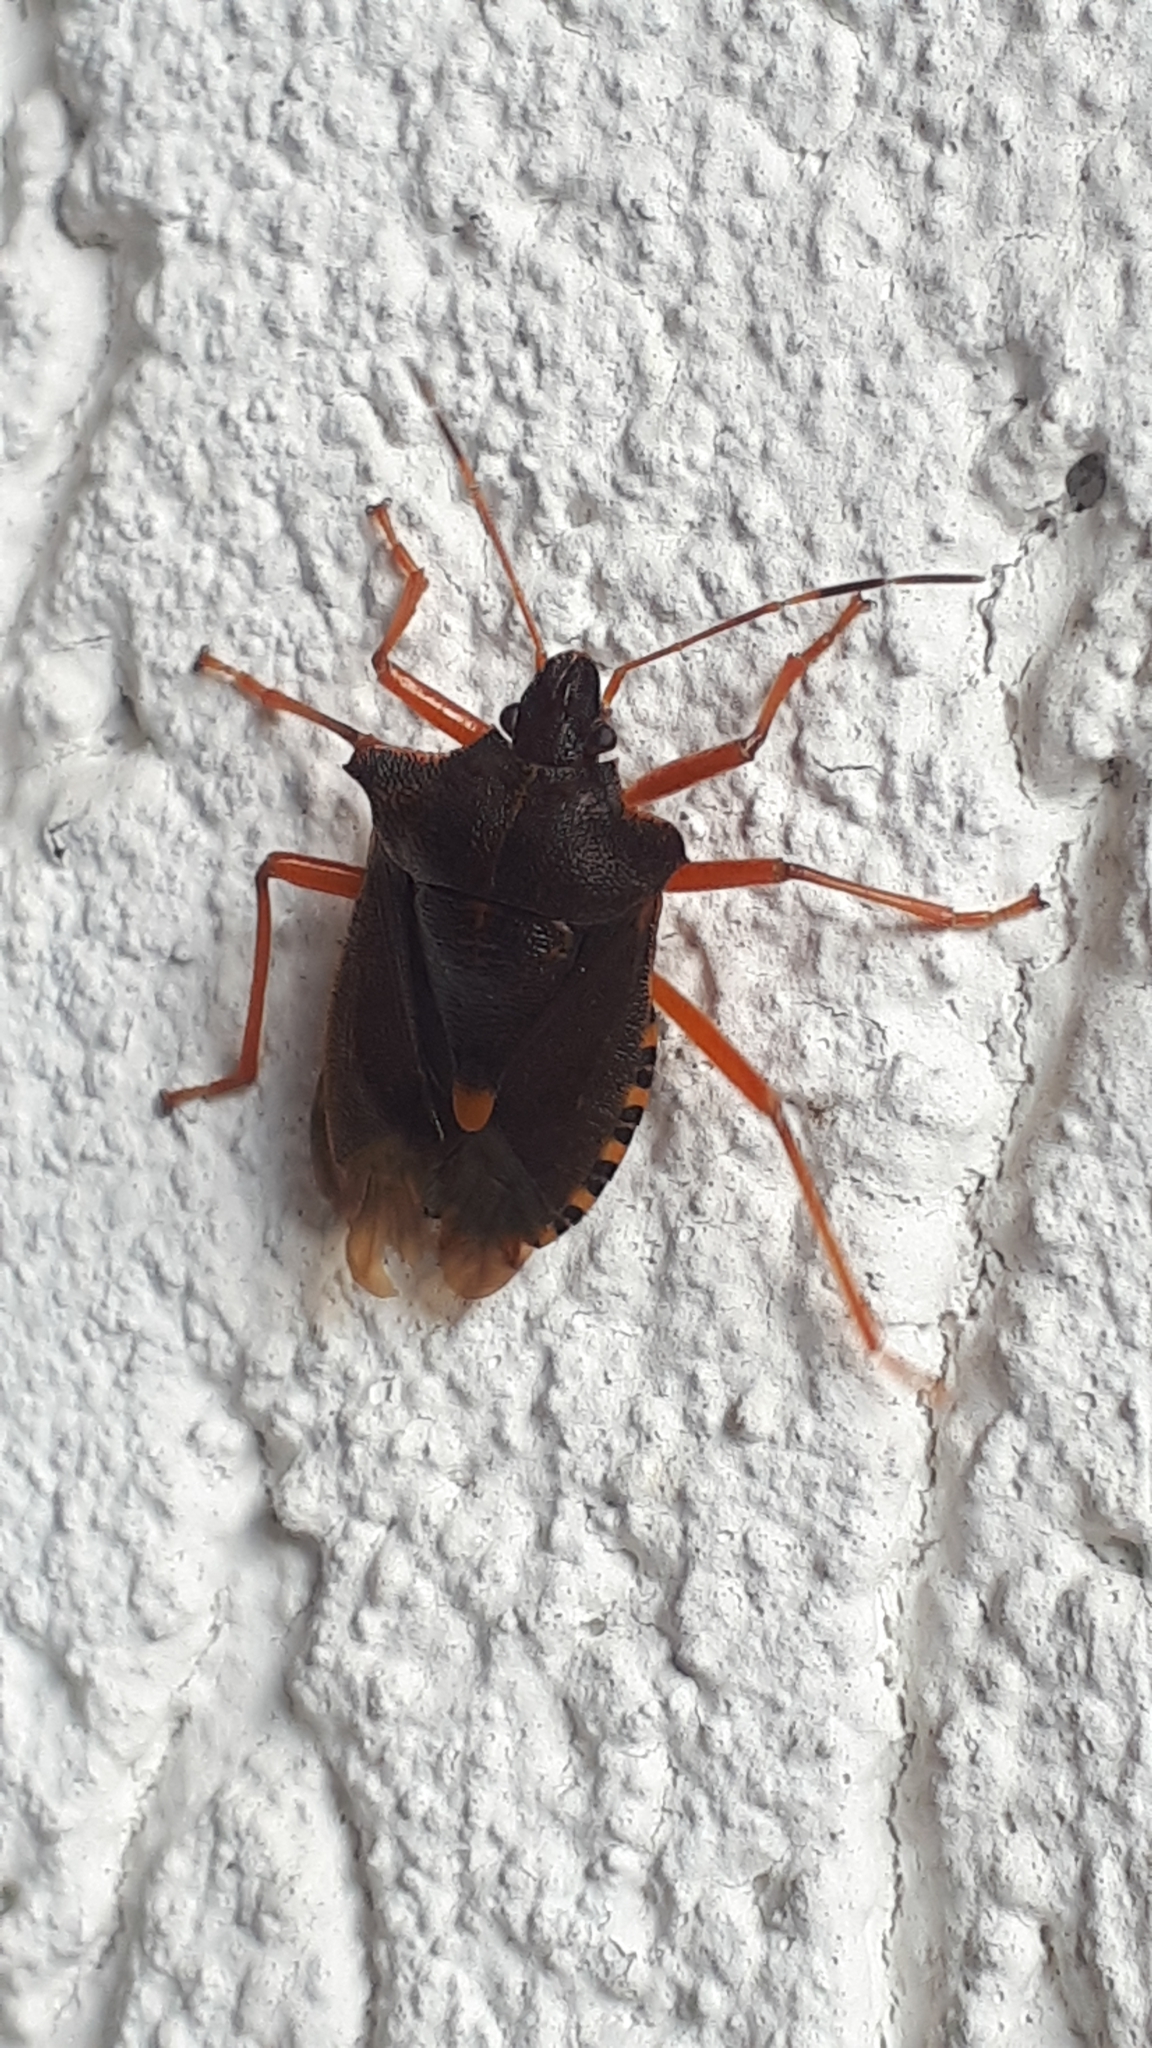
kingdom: Animalia
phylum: Arthropoda
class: Insecta
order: Hemiptera
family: Pentatomidae
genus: Pentatoma
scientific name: Pentatoma rufipes
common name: Forest bug
